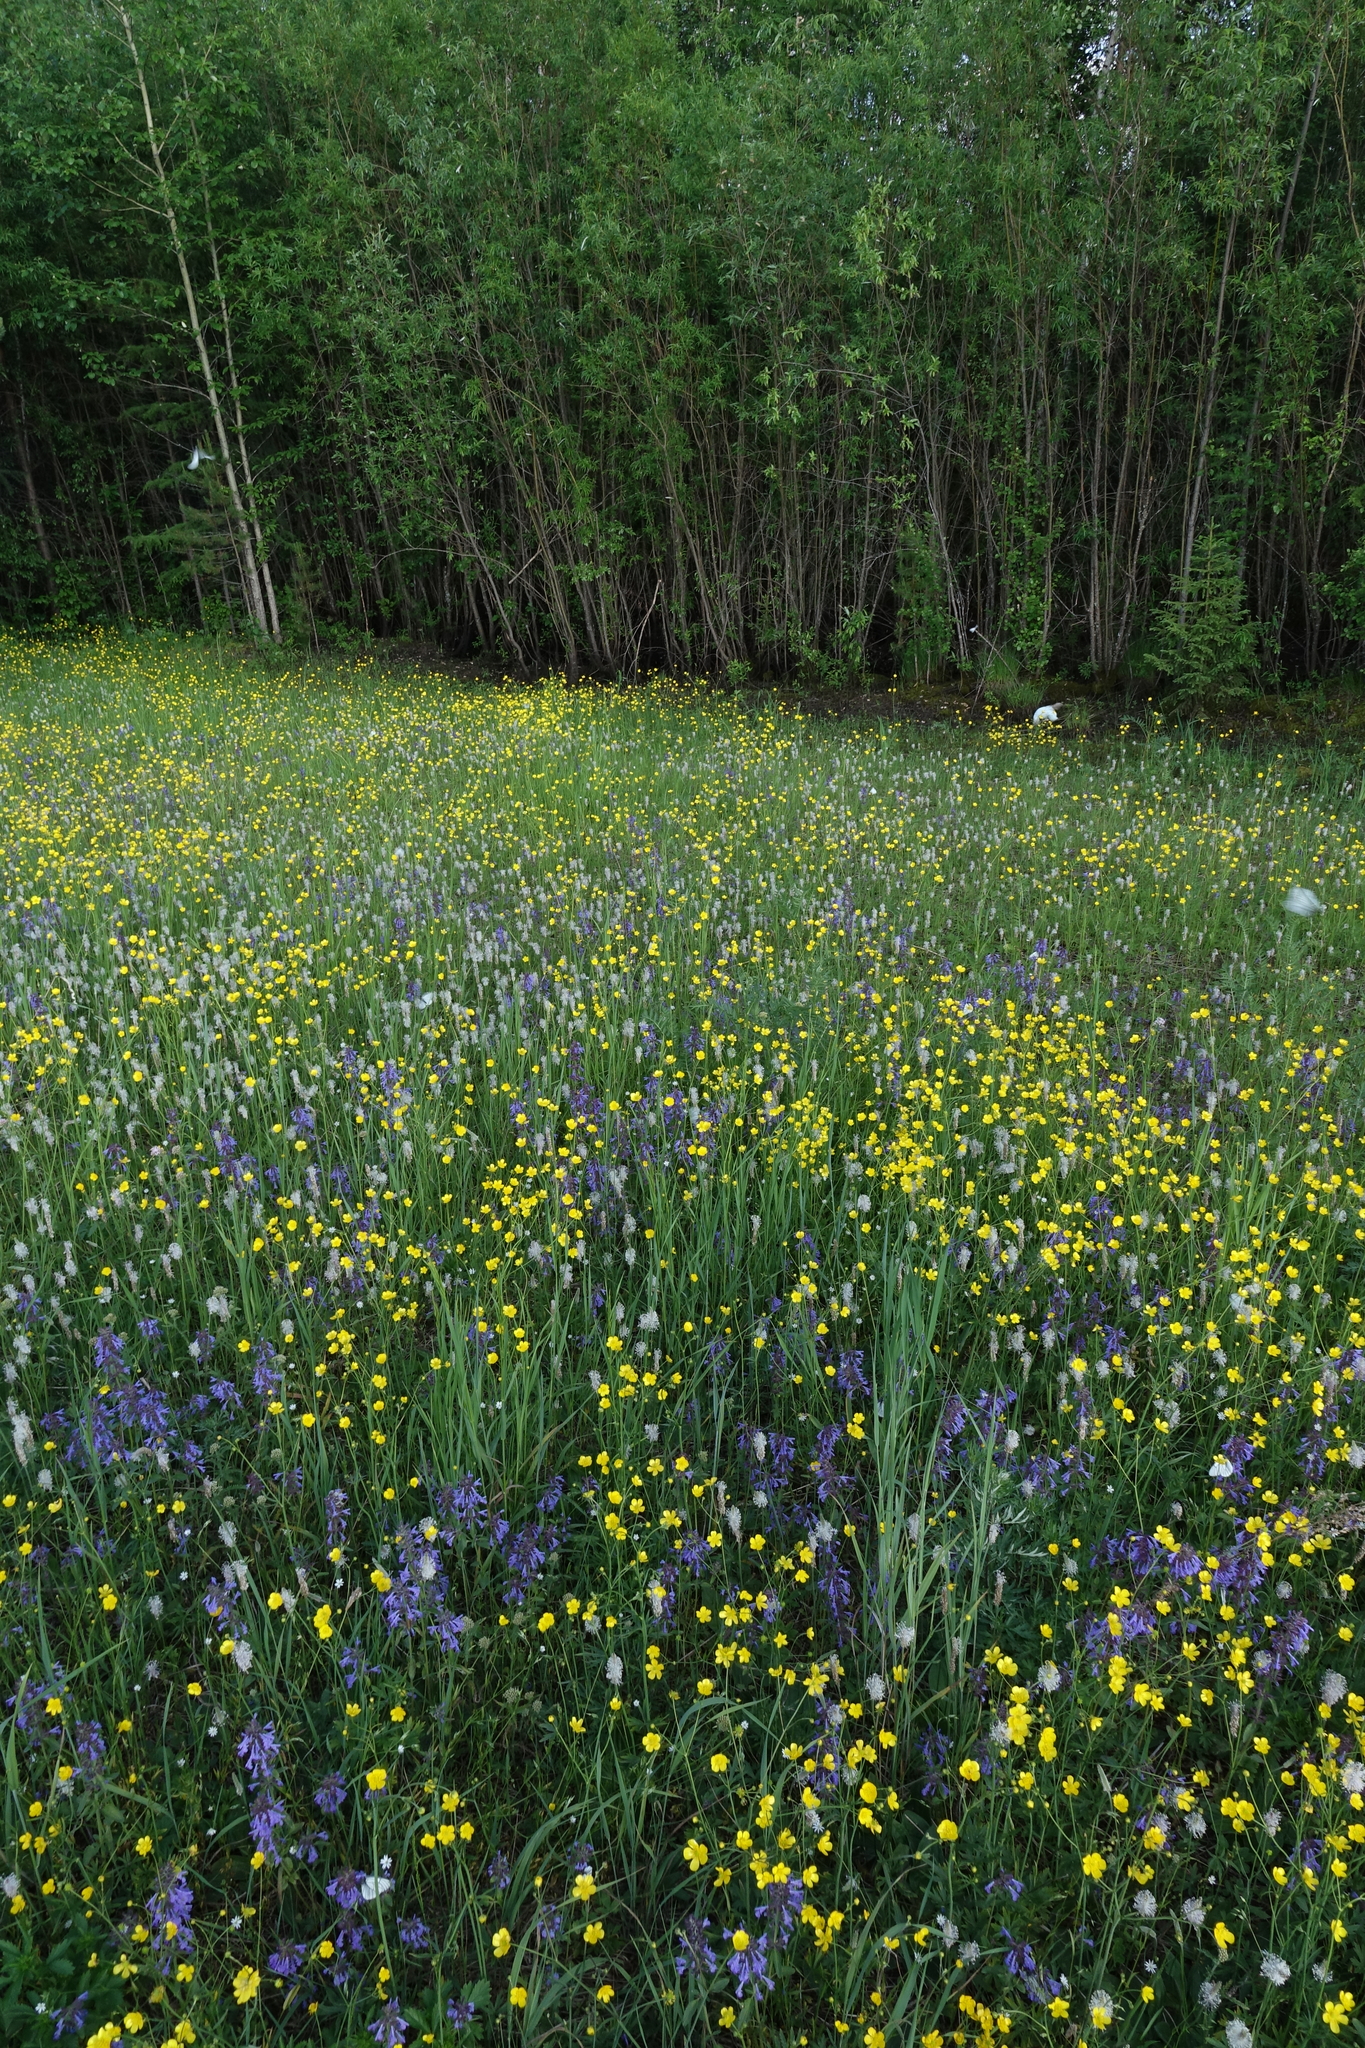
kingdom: Plantae
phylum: Tracheophyta
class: Magnoliopsida
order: Lamiales
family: Lamiaceae
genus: Dracocephalum
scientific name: Dracocephalum nutans
